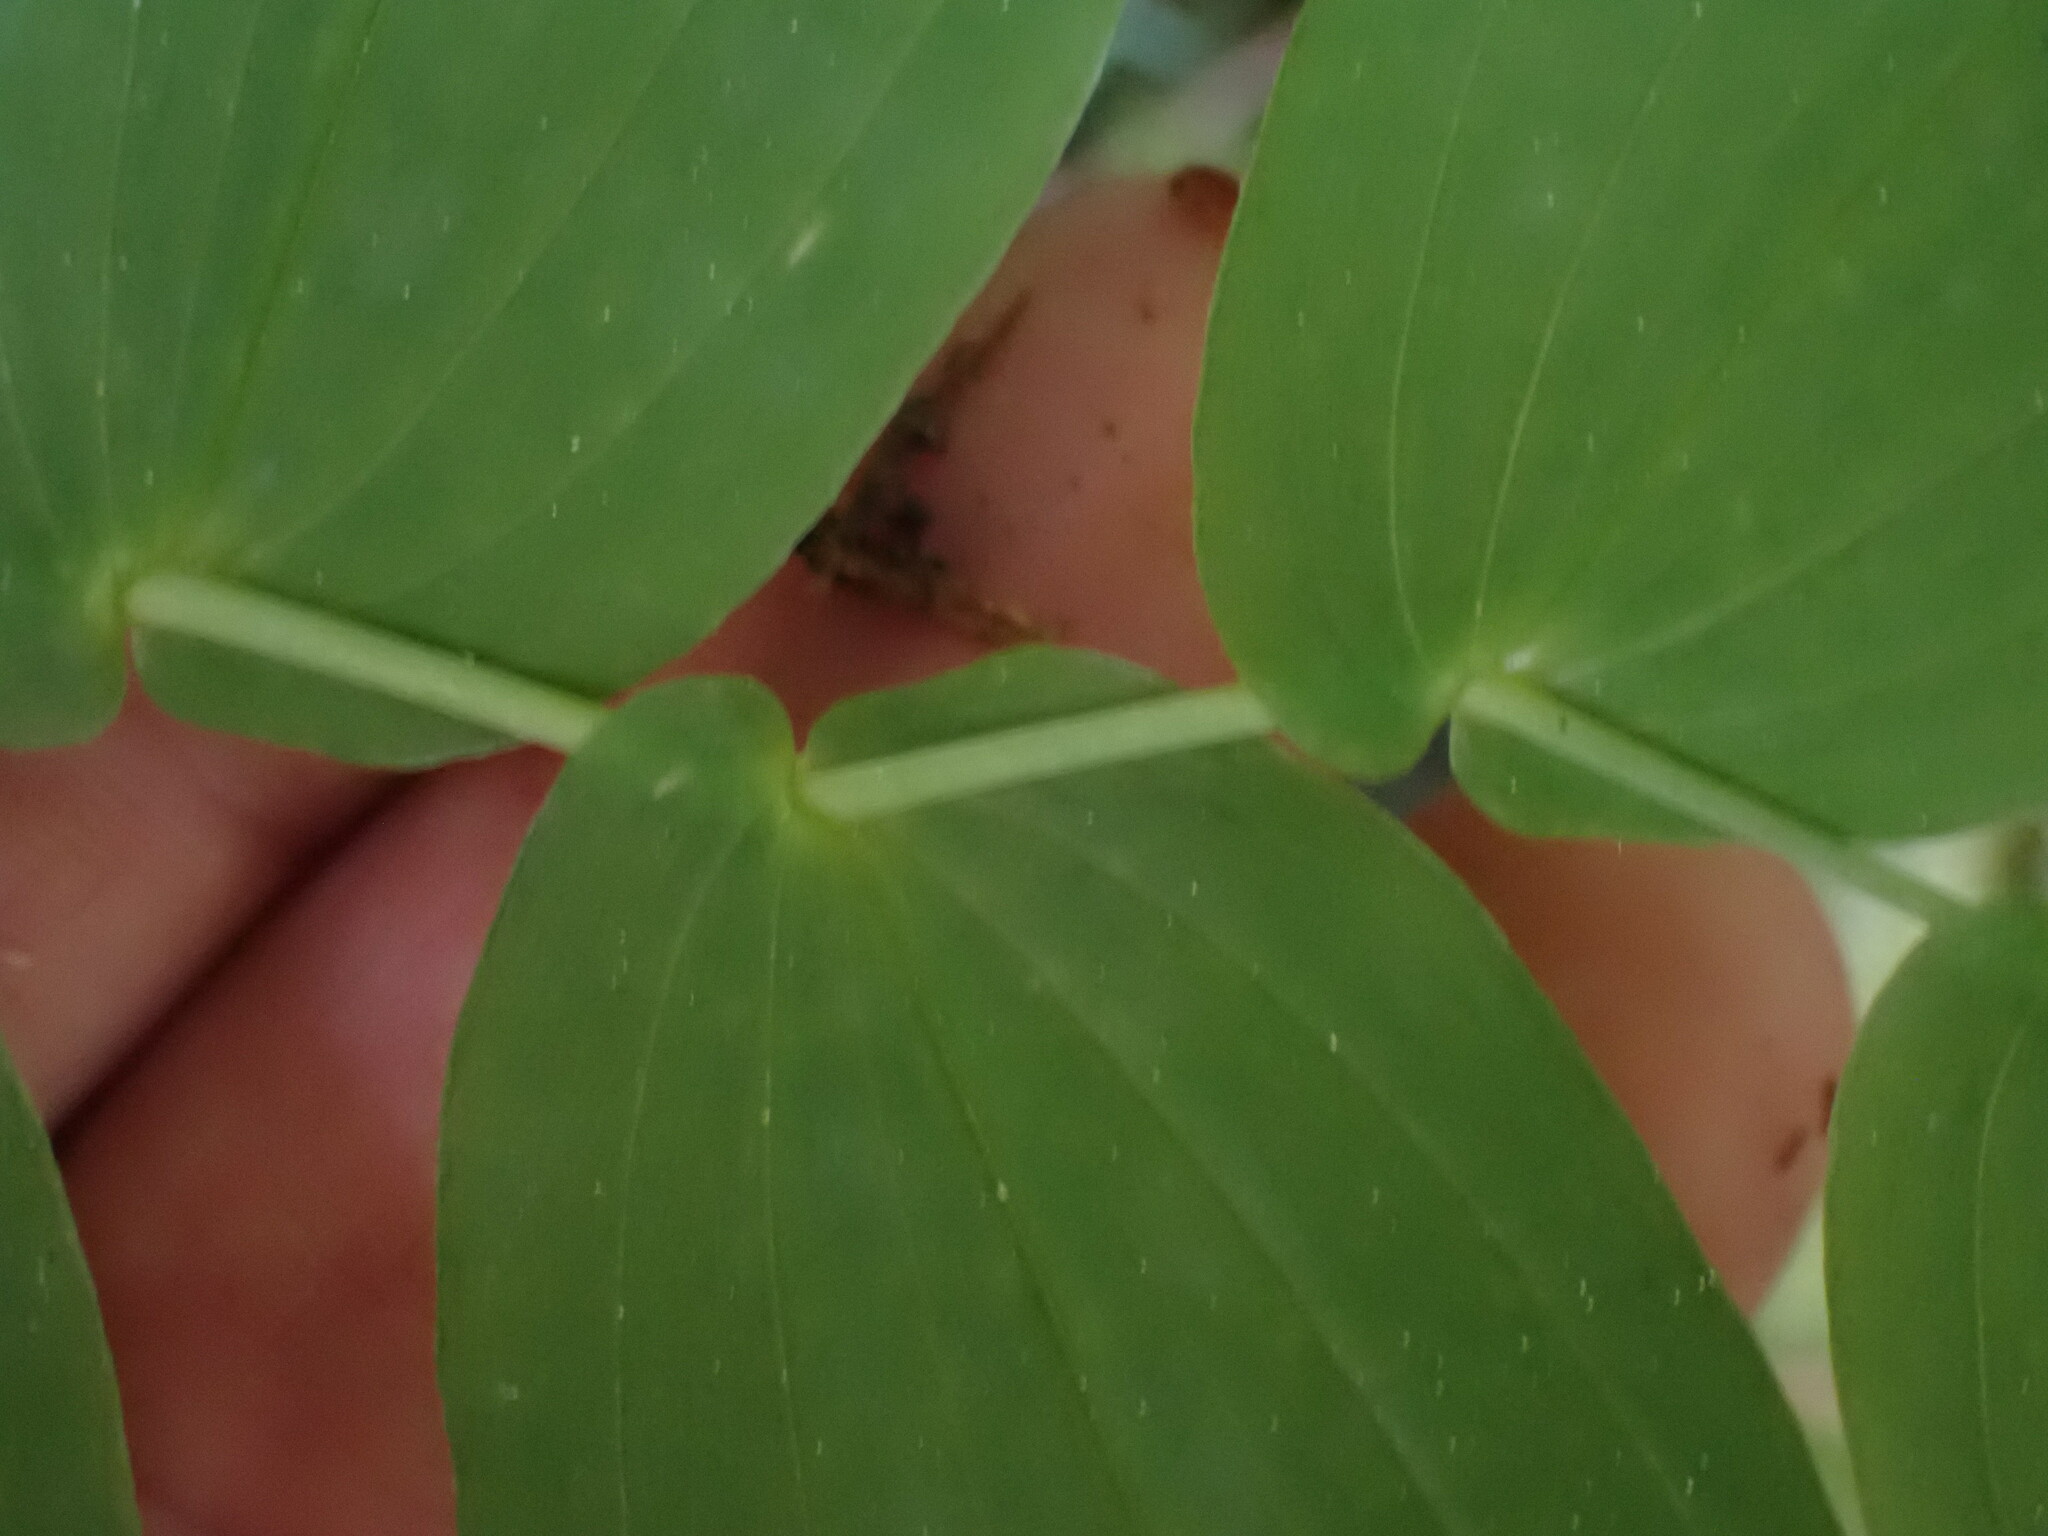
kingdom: Plantae
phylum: Tracheophyta
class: Liliopsida
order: Liliales
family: Liliaceae
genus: Streptopus
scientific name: Streptopus amplexifolius
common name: Clasp twisted stalk
